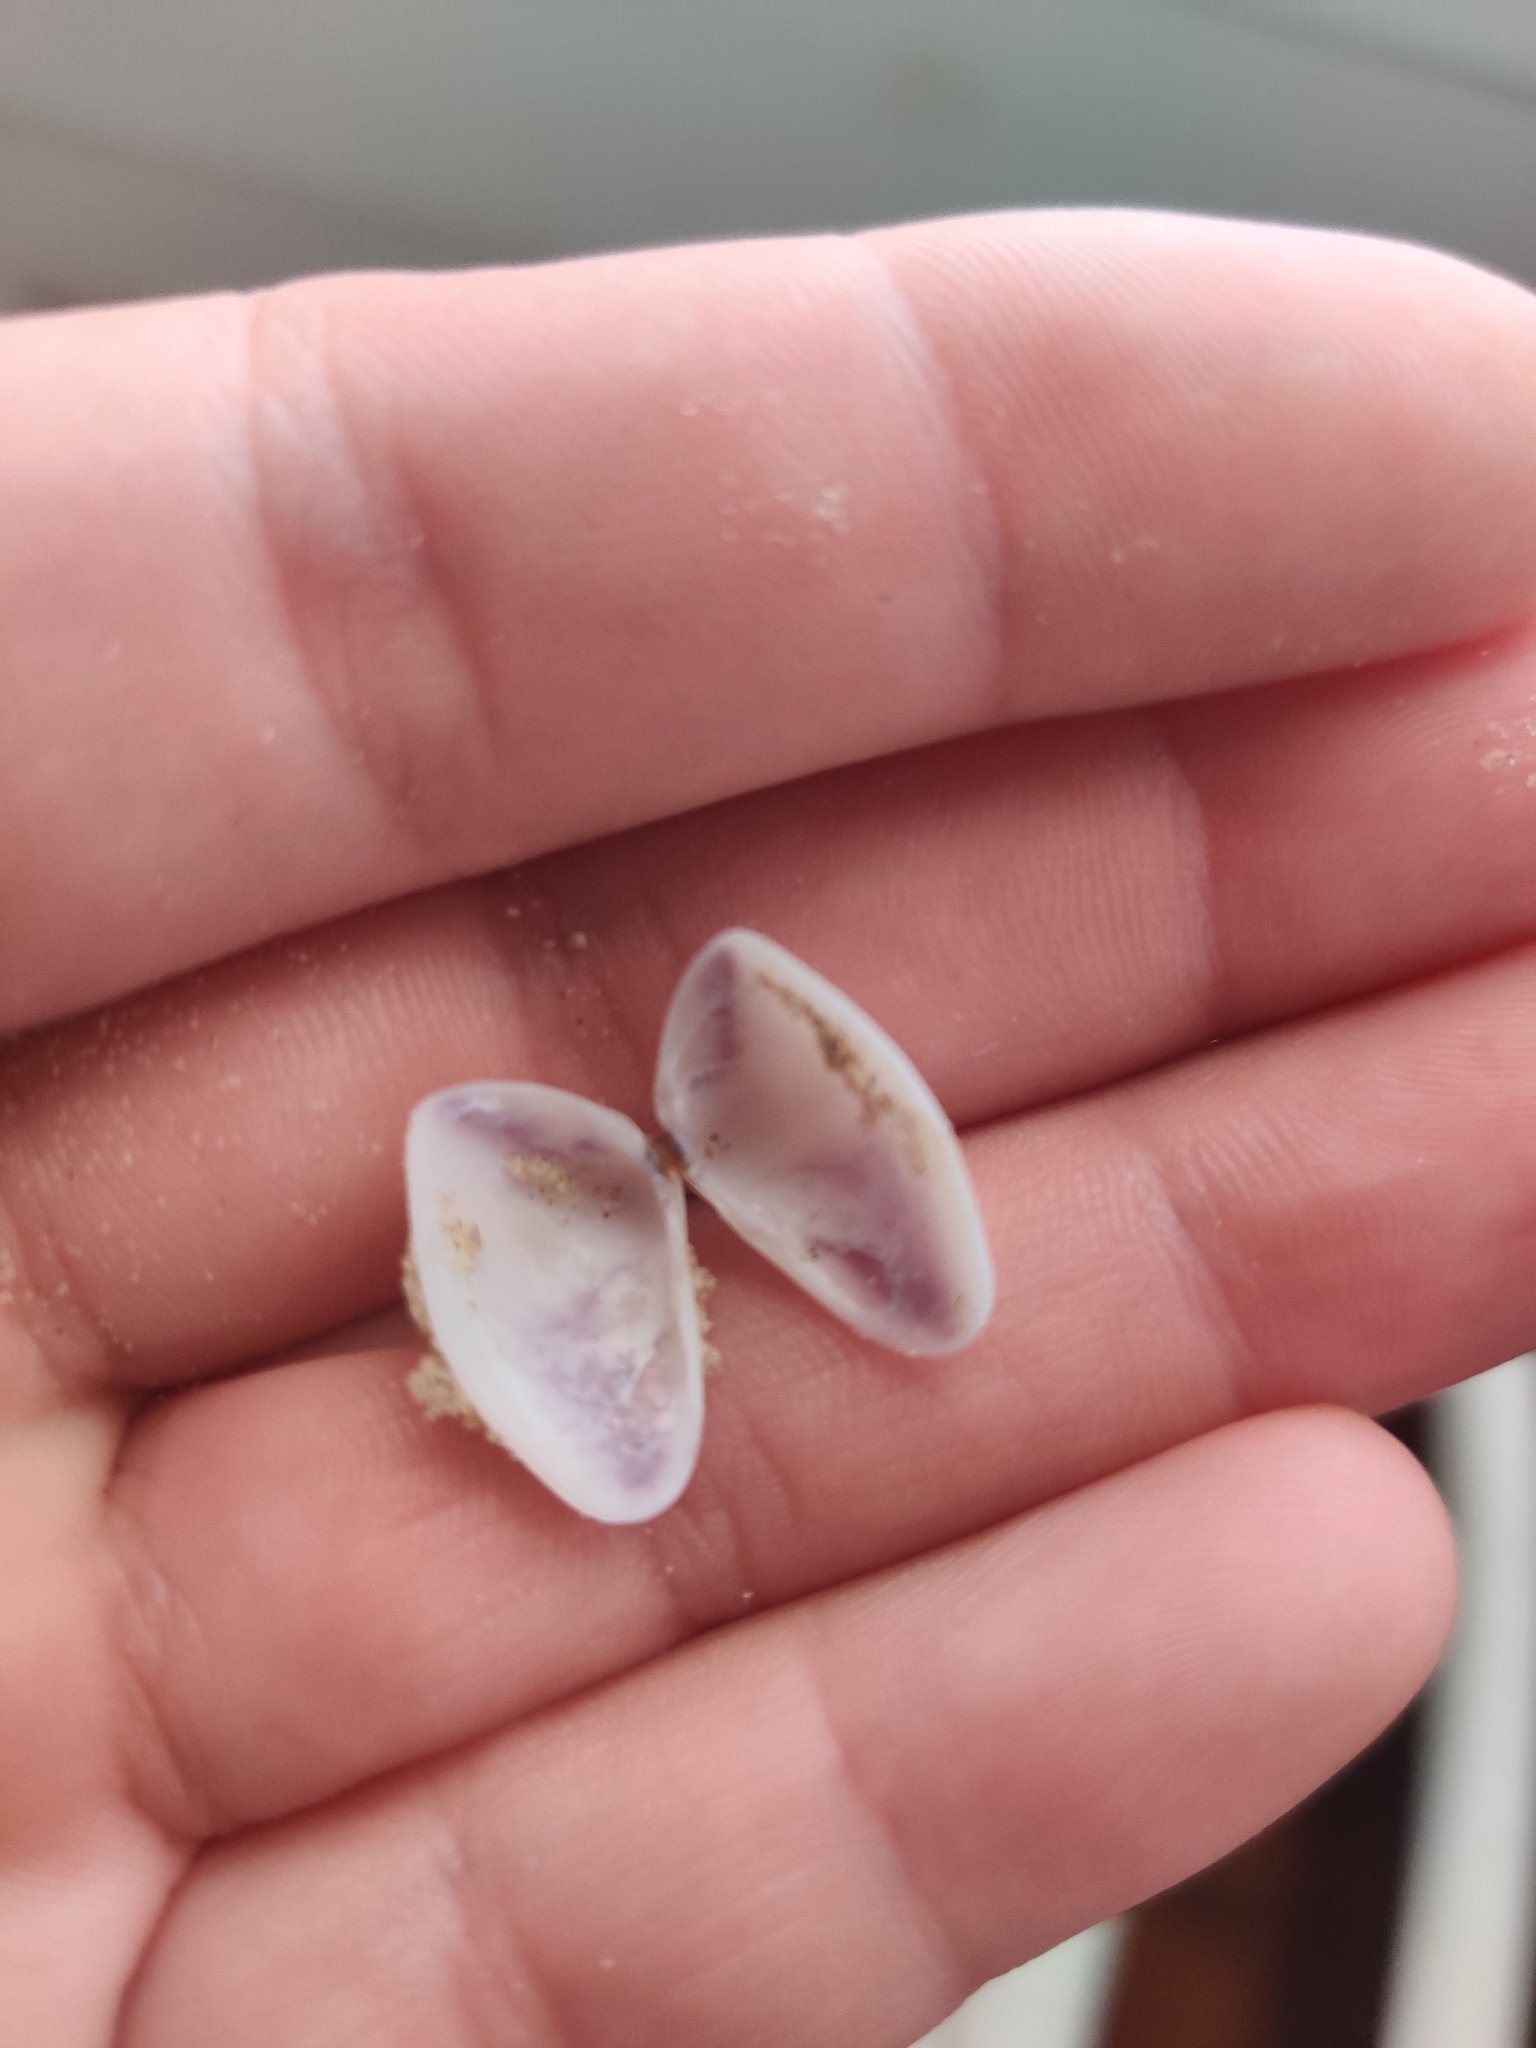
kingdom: Animalia
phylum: Mollusca
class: Bivalvia
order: Cardiida
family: Donacidae
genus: Donax
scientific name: Donax variabilis
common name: Butterfly shell
